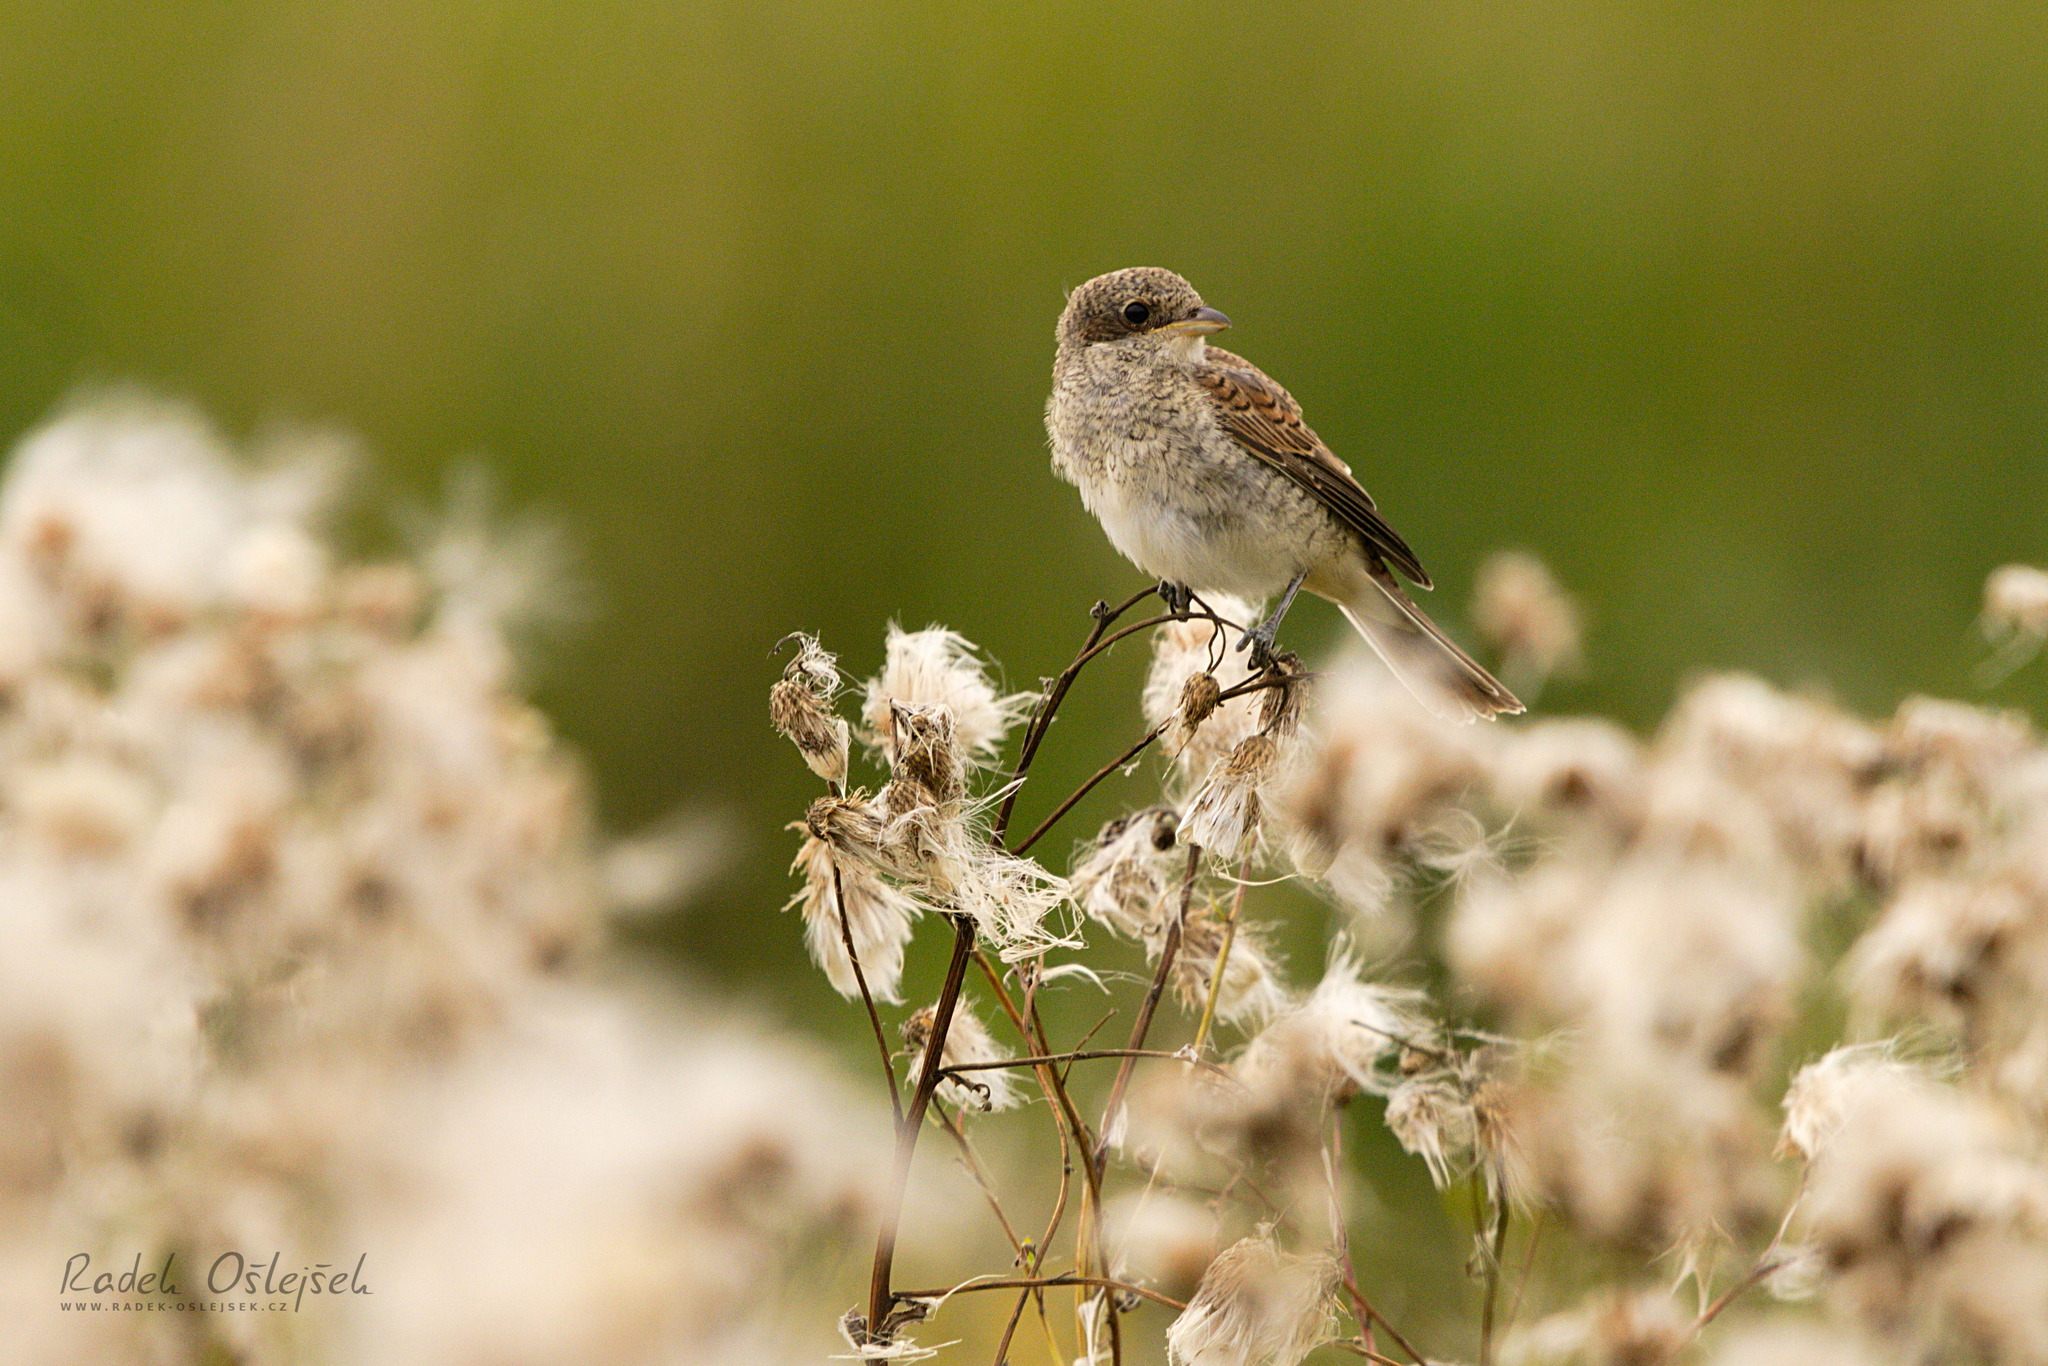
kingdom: Animalia
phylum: Chordata
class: Aves
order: Passeriformes
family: Laniidae
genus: Lanius
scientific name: Lanius collurio
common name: Red-backed shrike
